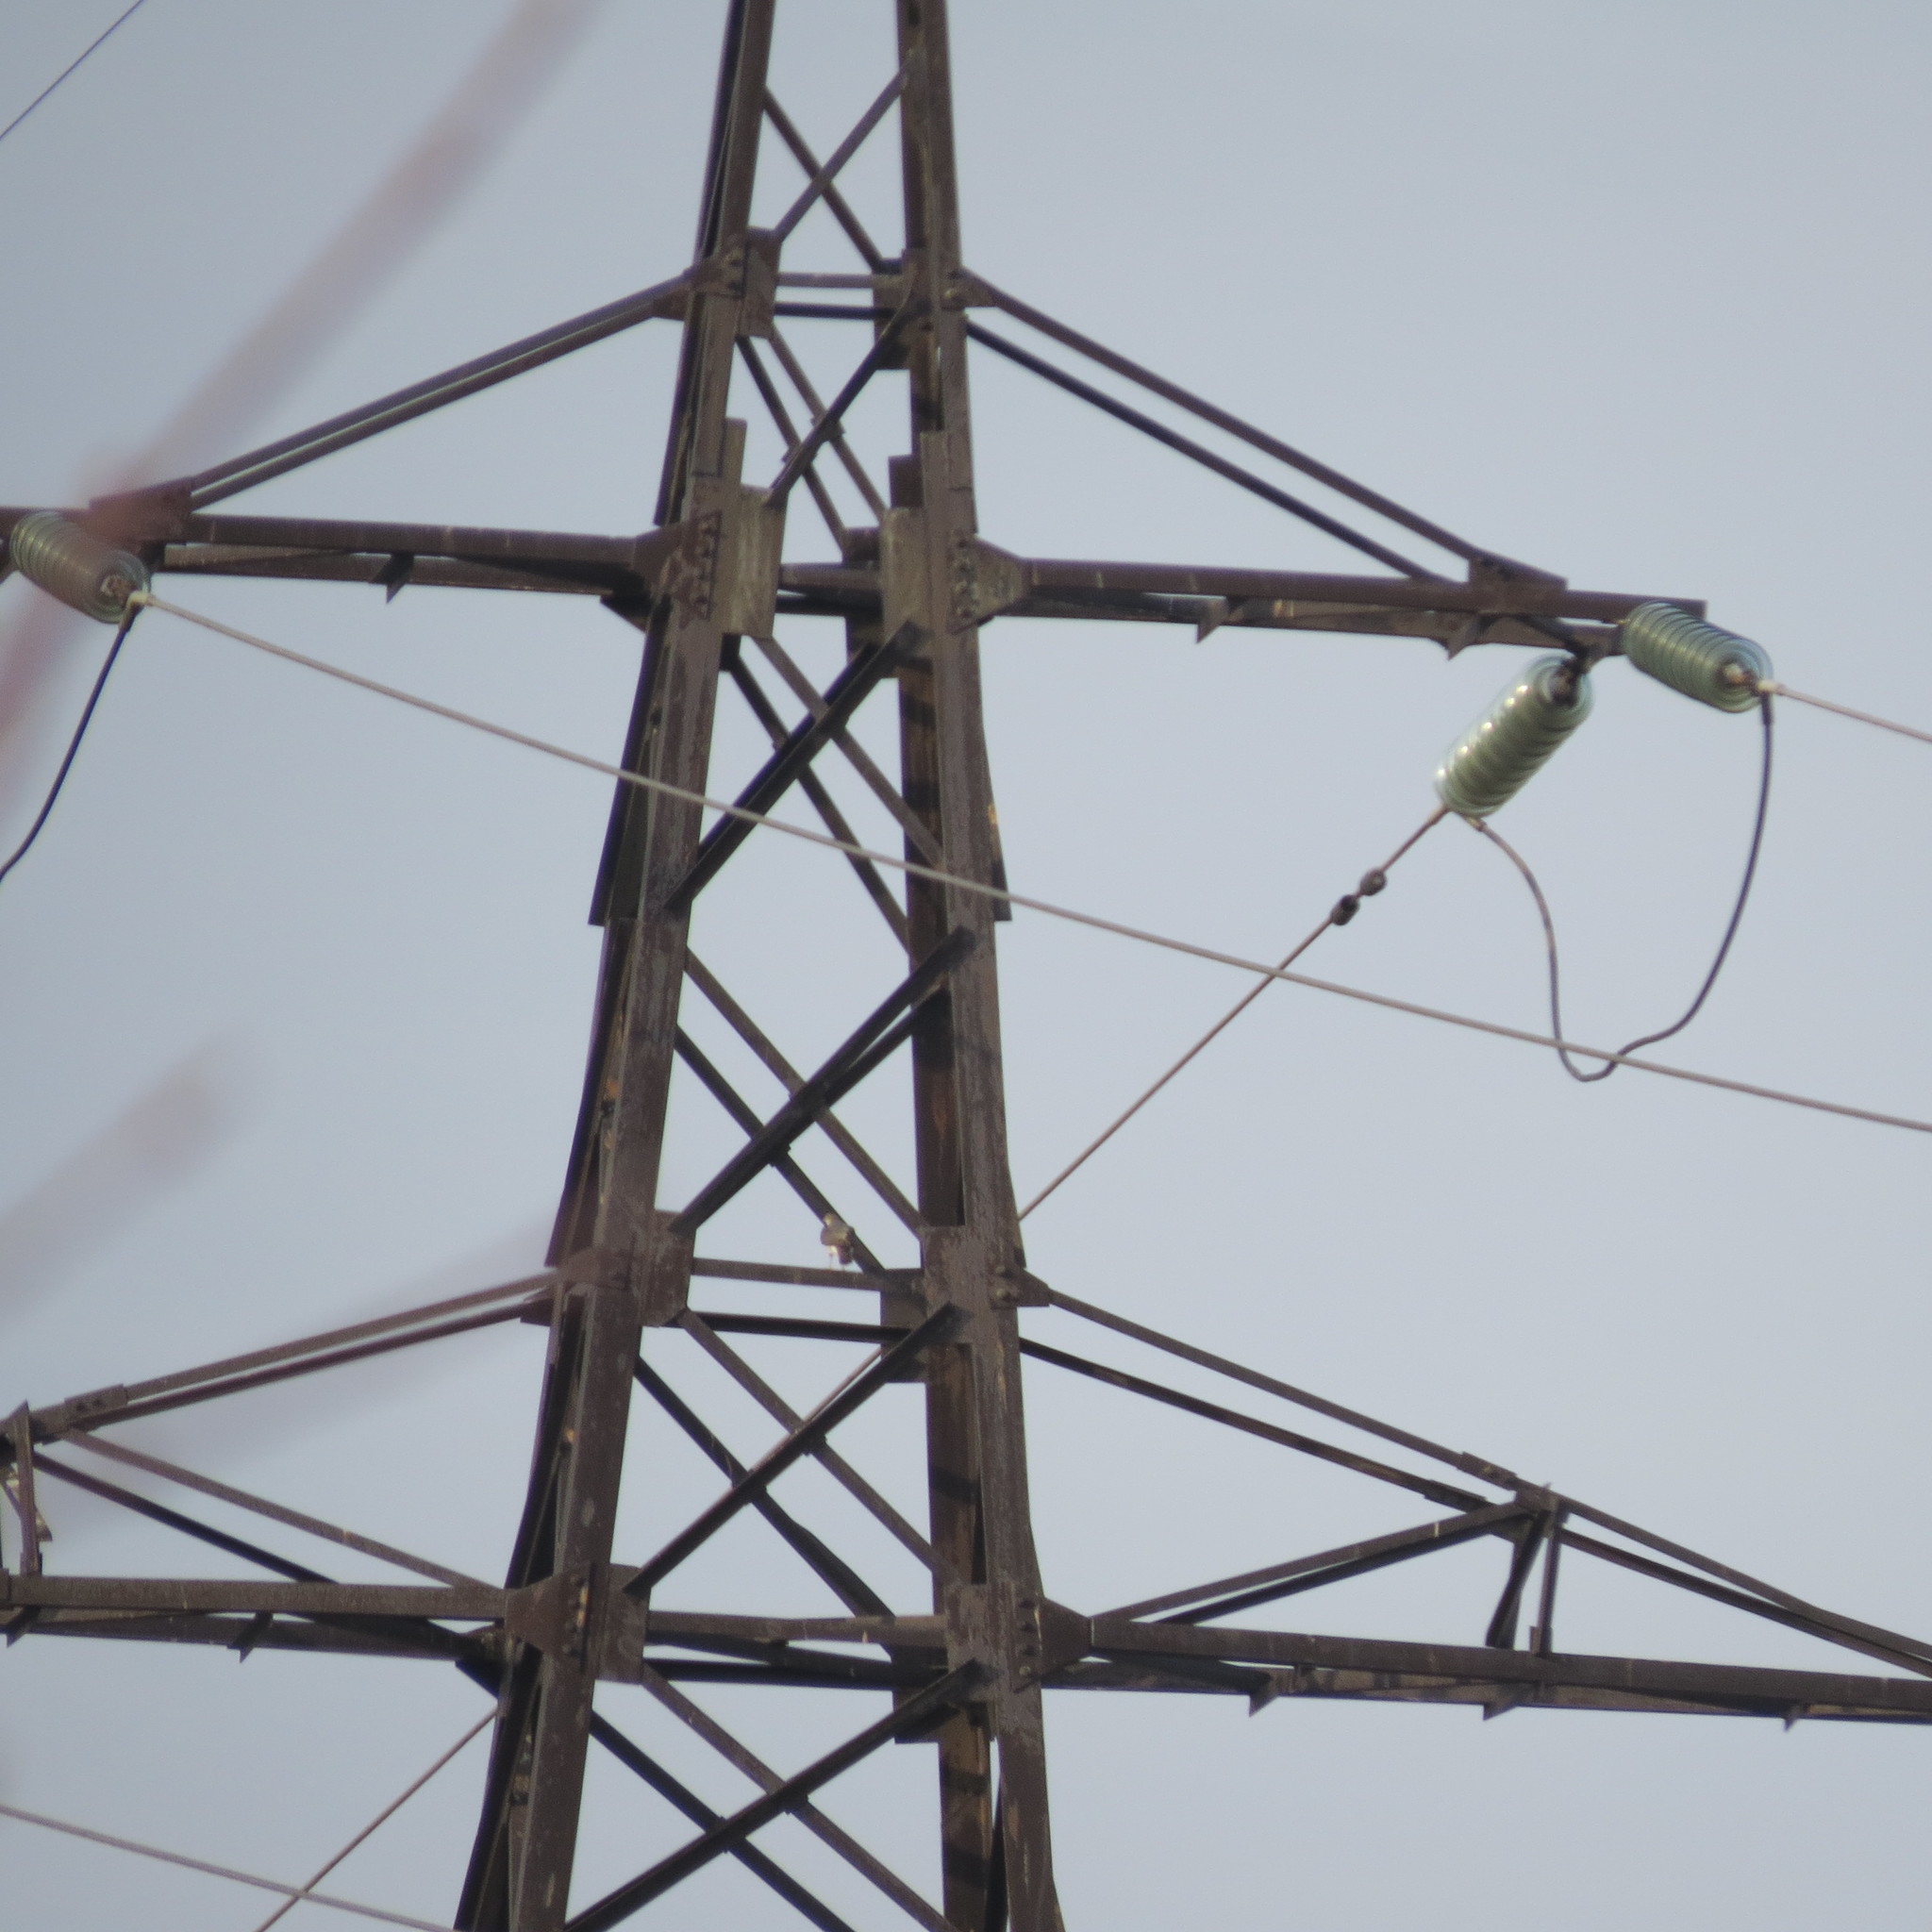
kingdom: Animalia
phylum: Chordata
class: Aves
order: Accipitriformes
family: Accipitridae
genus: Accipiter
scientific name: Accipiter nisus
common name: Eurasian sparrowhawk
